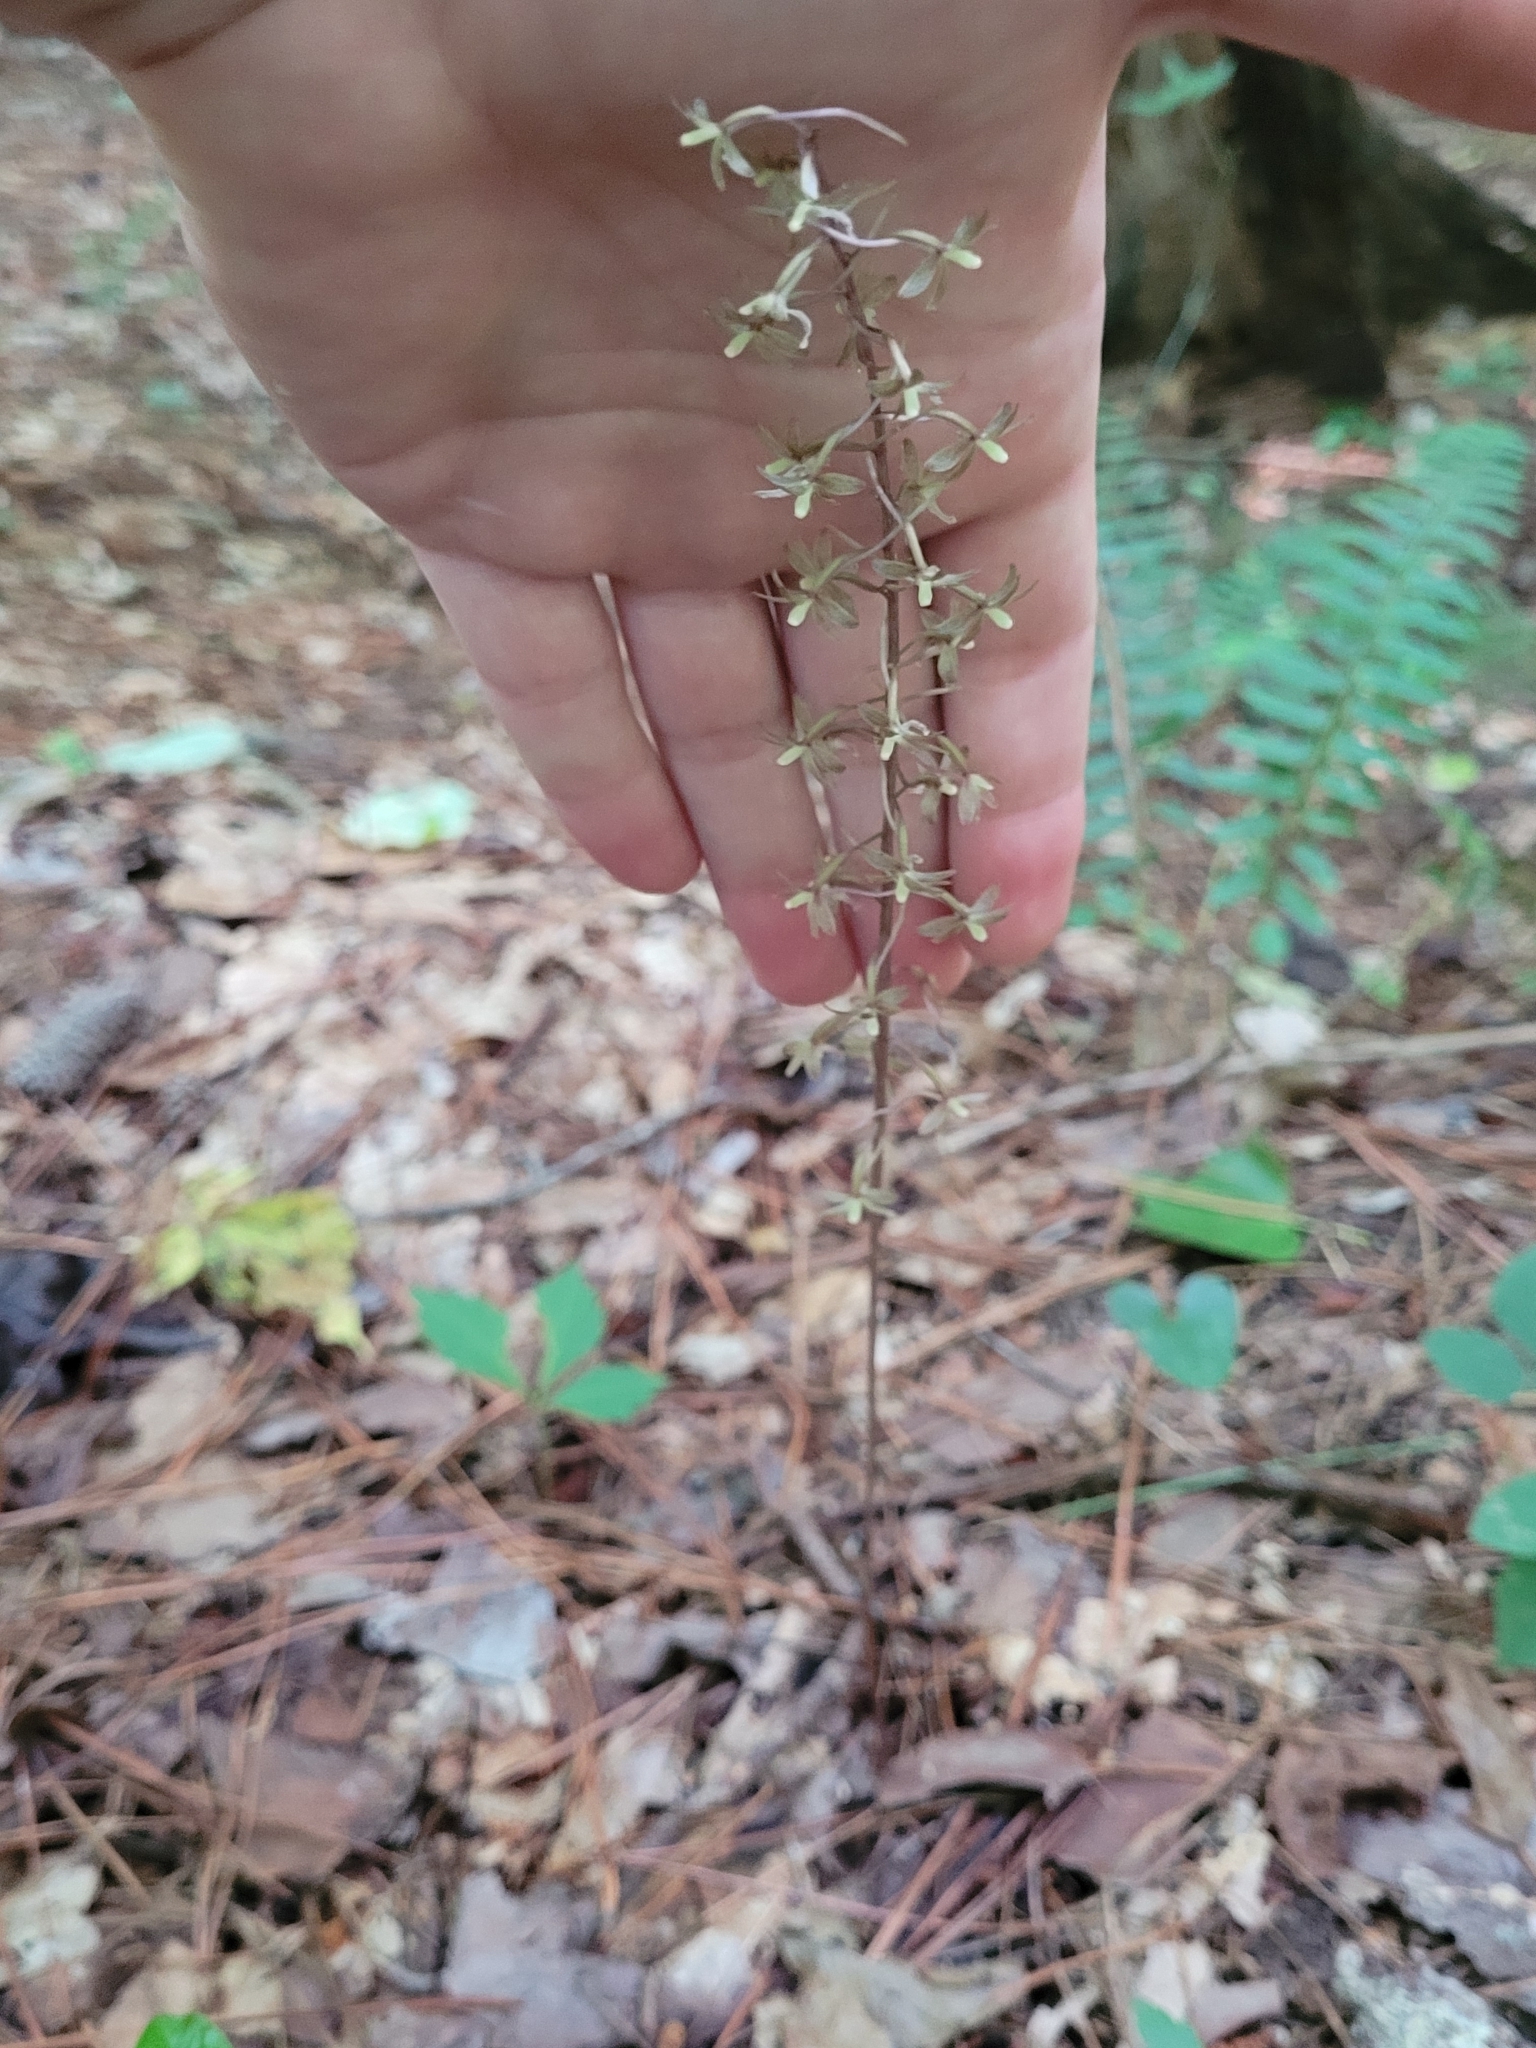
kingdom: Plantae
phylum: Tracheophyta
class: Liliopsida
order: Asparagales
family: Orchidaceae
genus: Tipularia
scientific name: Tipularia discolor
